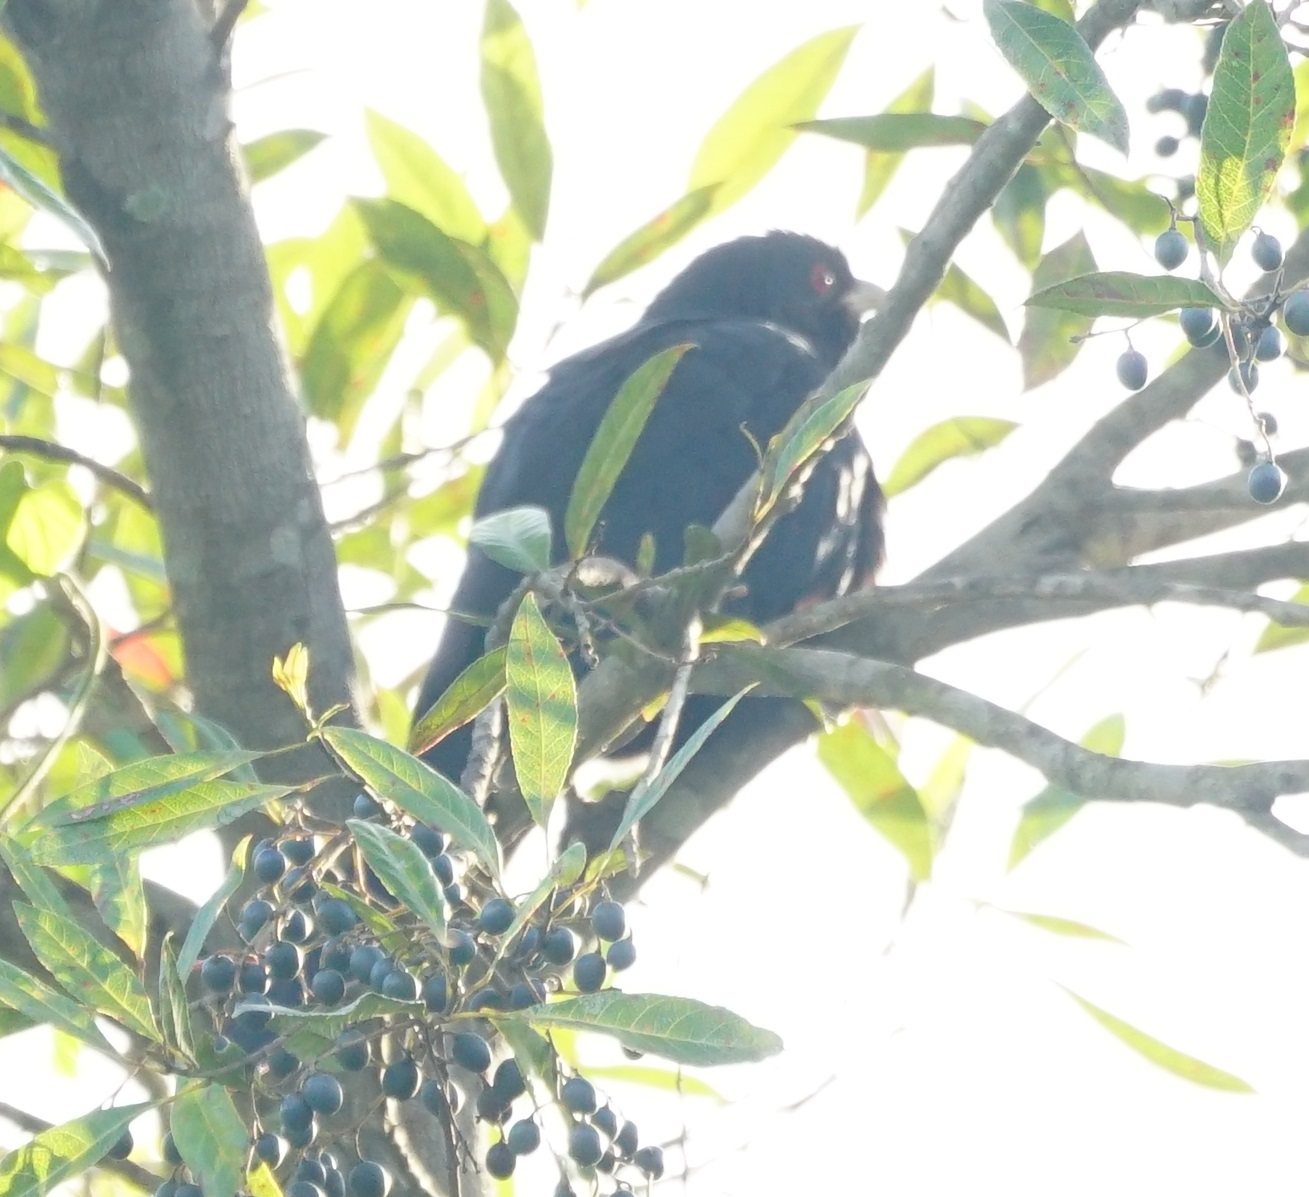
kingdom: Animalia
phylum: Chordata
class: Aves
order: Cuculiformes
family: Cuculidae
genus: Eudynamys
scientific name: Eudynamys orientalis
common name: Pacific koel
